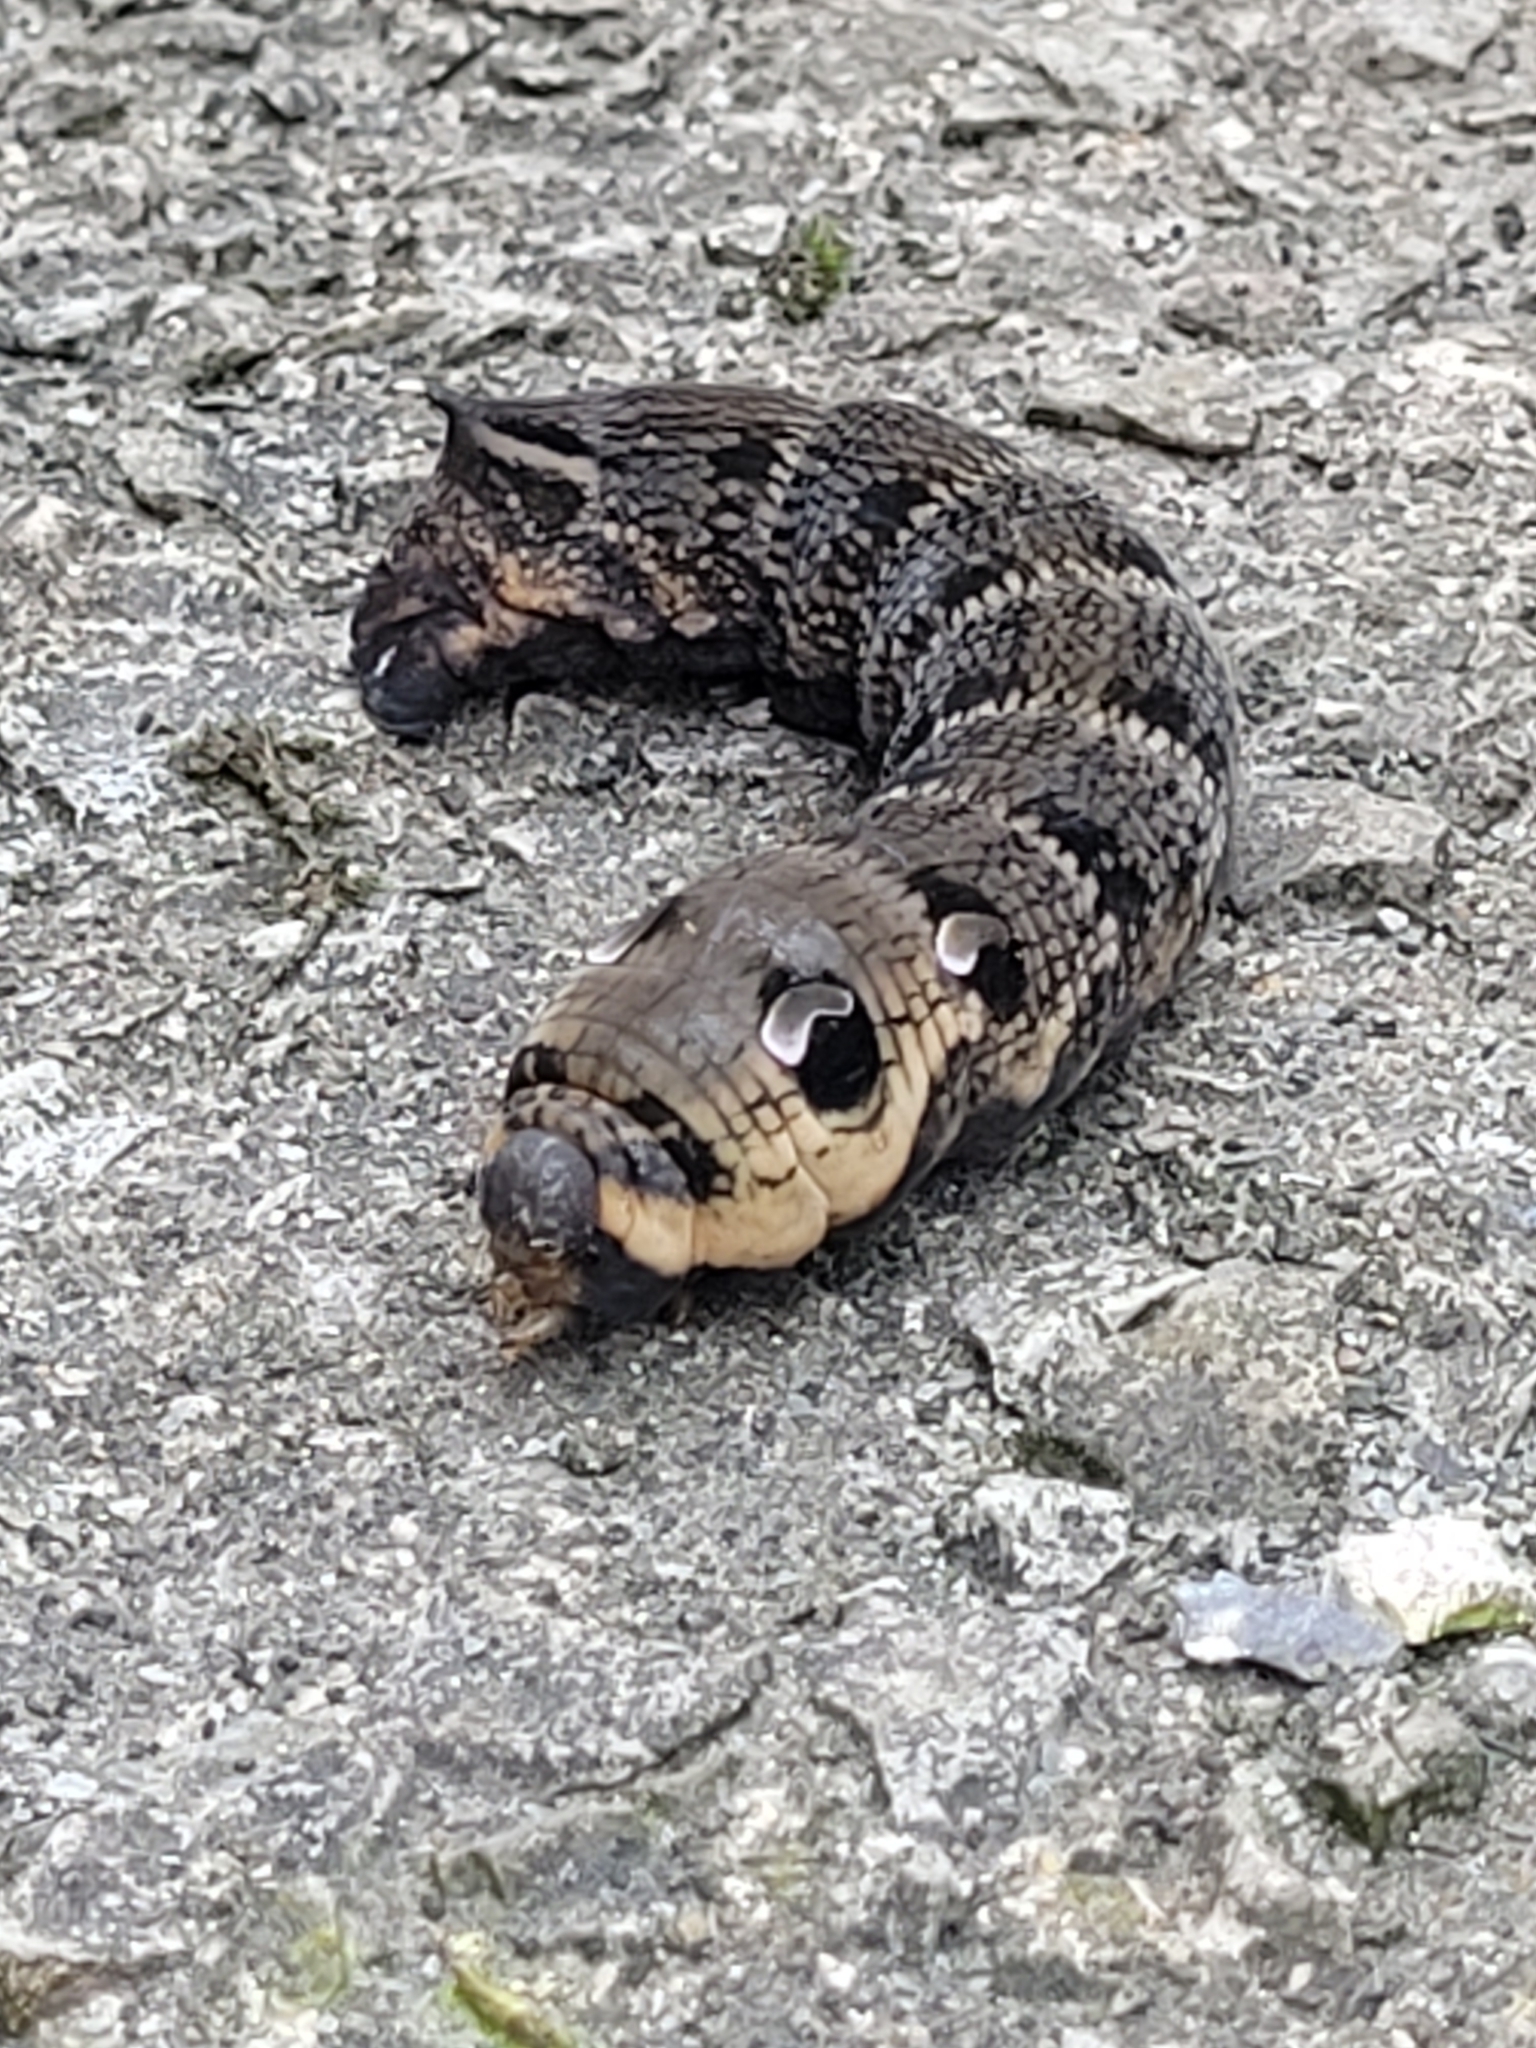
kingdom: Animalia
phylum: Arthropoda
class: Insecta
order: Lepidoptera
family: Sphingidae
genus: Deilephila
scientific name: Deilephila elpenor
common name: Elephant hawk-moth
